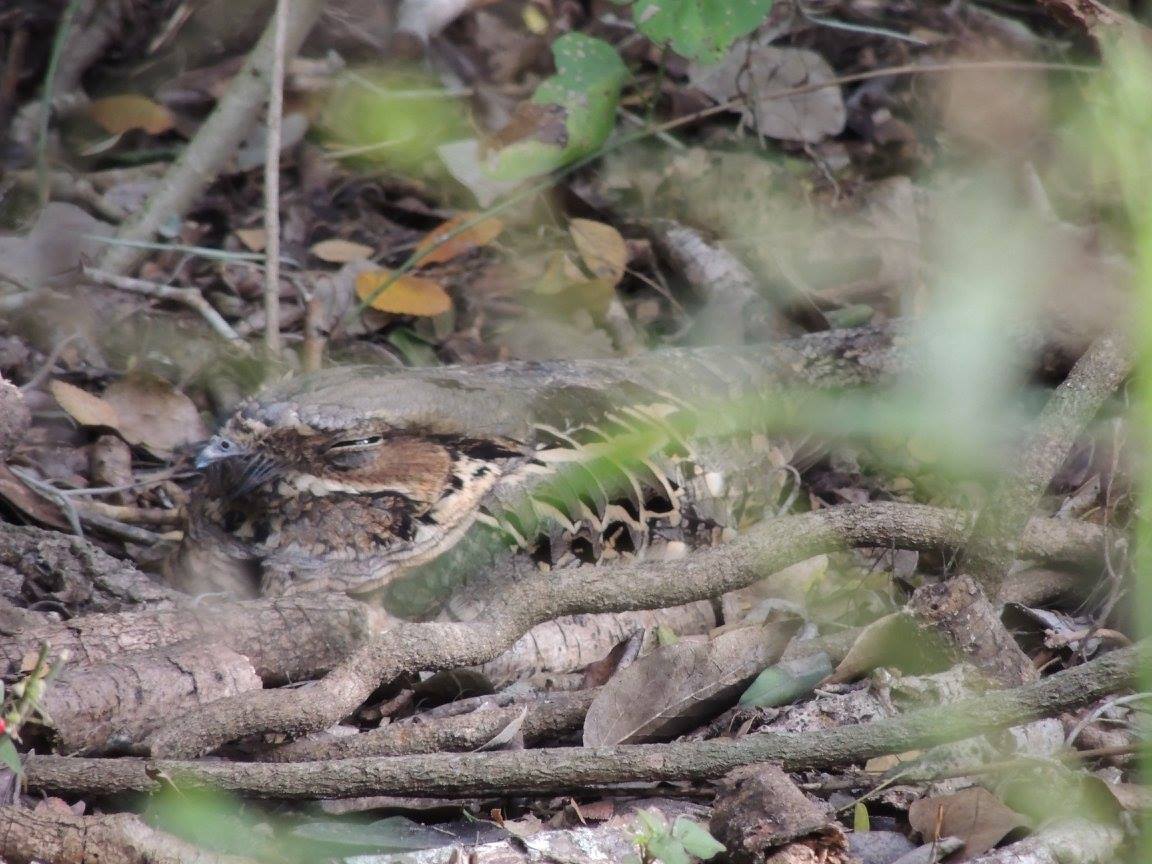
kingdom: Animalia
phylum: Chordata
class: Aves
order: Caprimulgiformes
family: Caprimulgidae
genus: Nyctidromus
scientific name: Nyctidromus albicollis
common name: Pauraque
